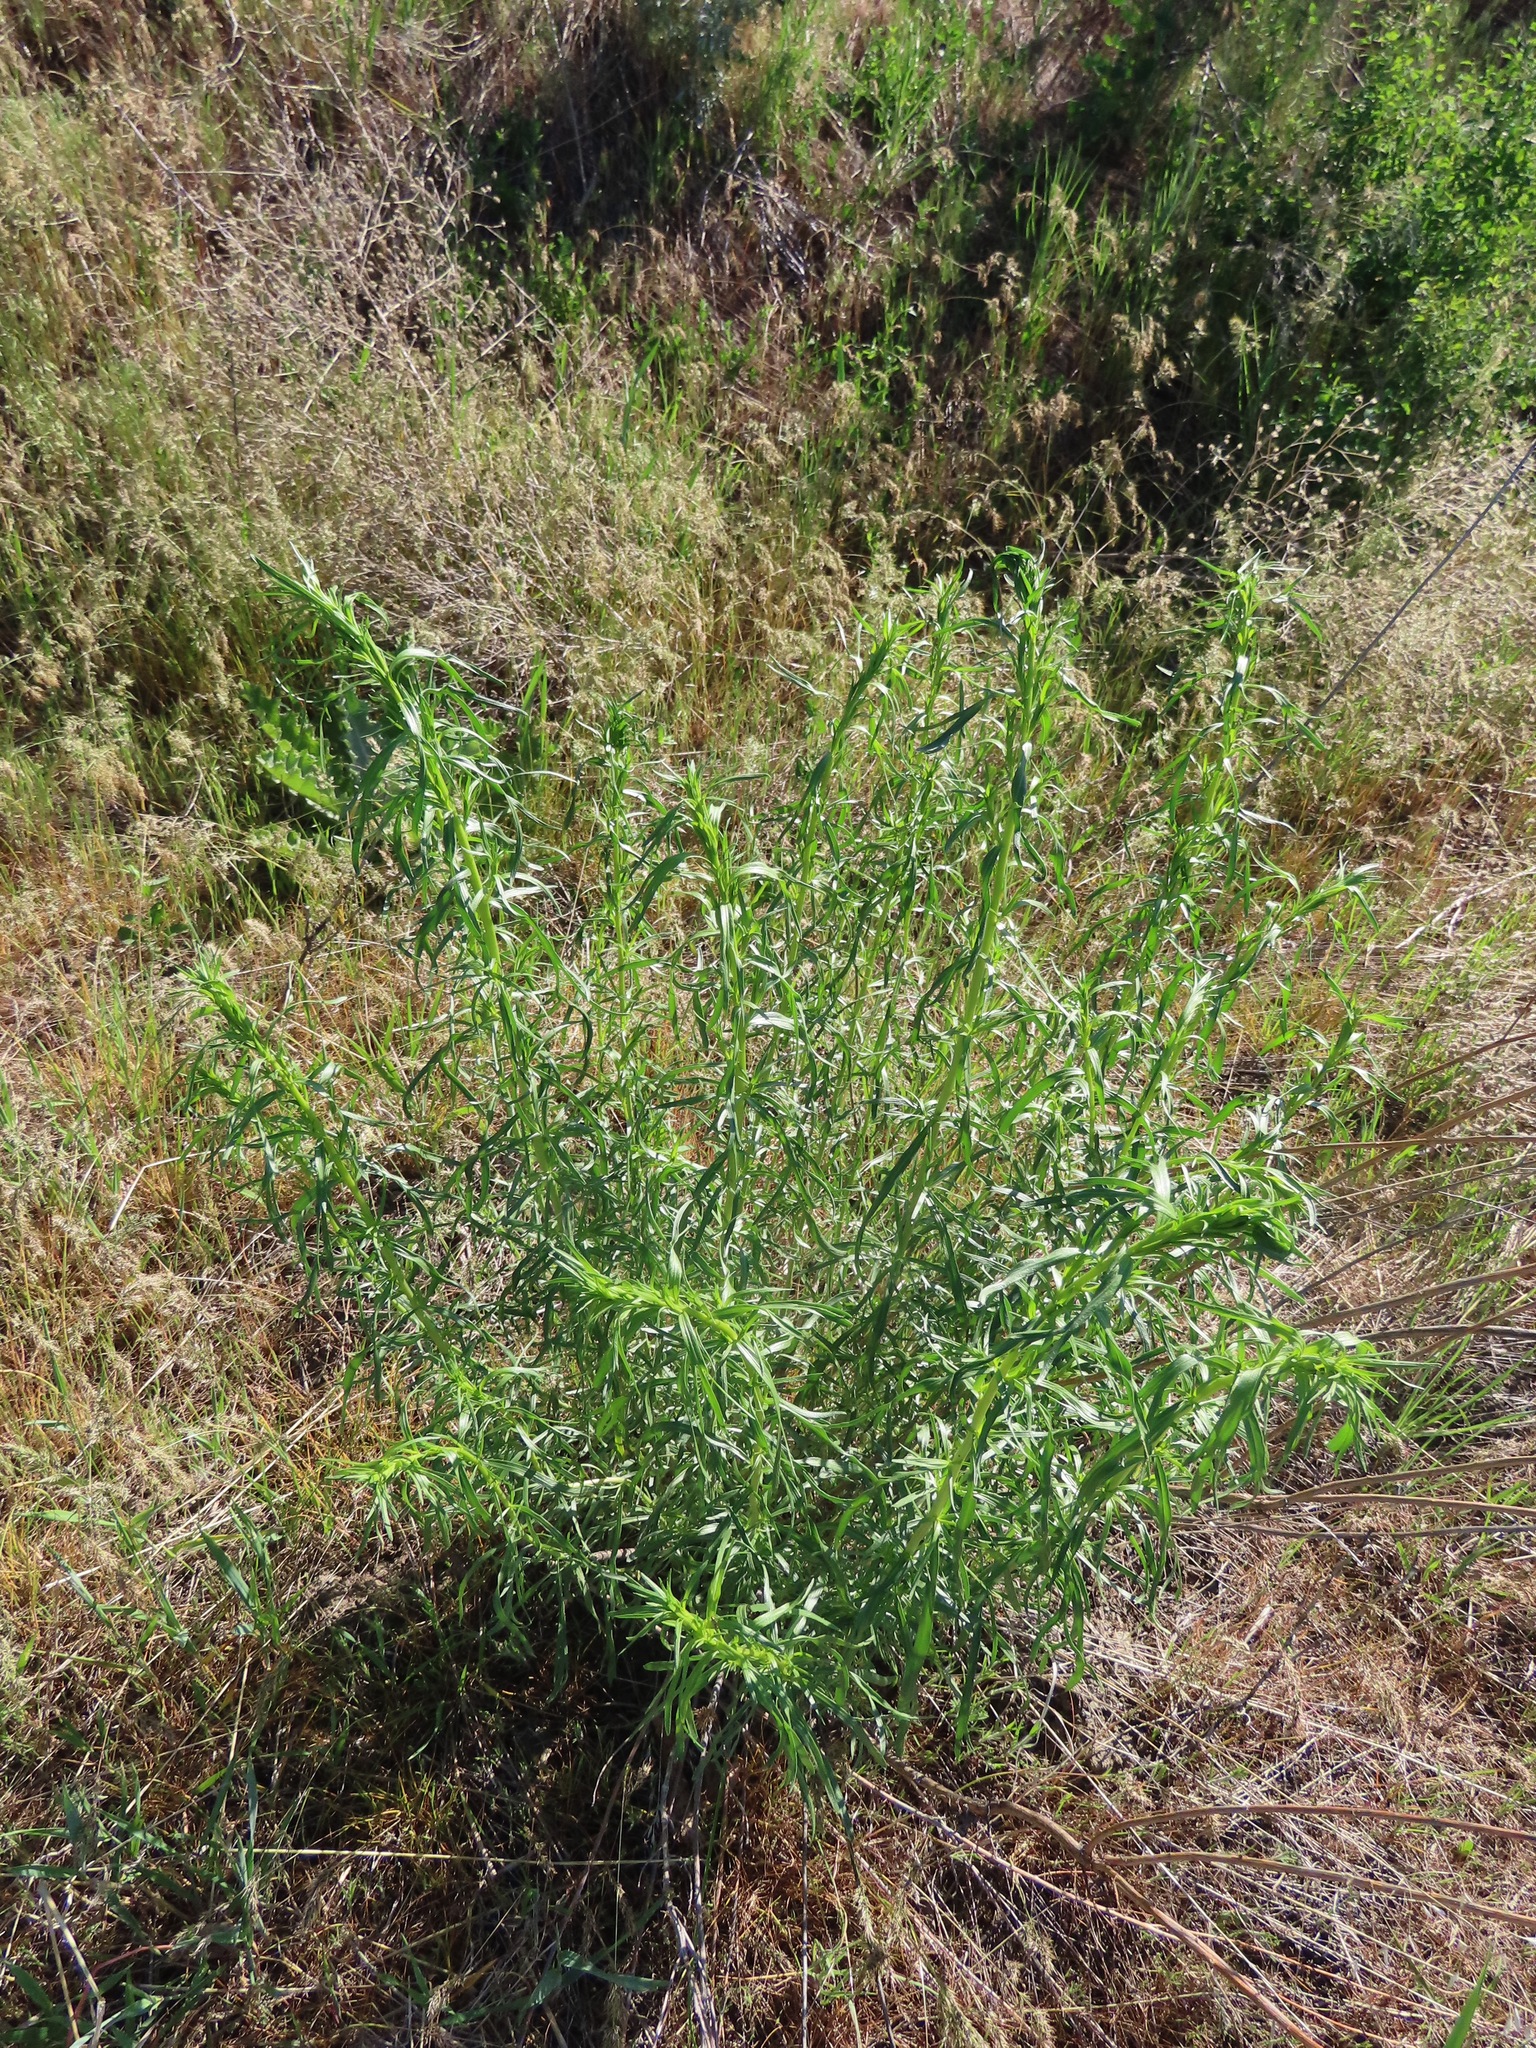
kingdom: Plantae
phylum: Tracheophyta
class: Magnoliopsida
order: Asterales
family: Asteraceae
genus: Artemisia
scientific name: Artemisia dracunculus
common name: Tarragon
